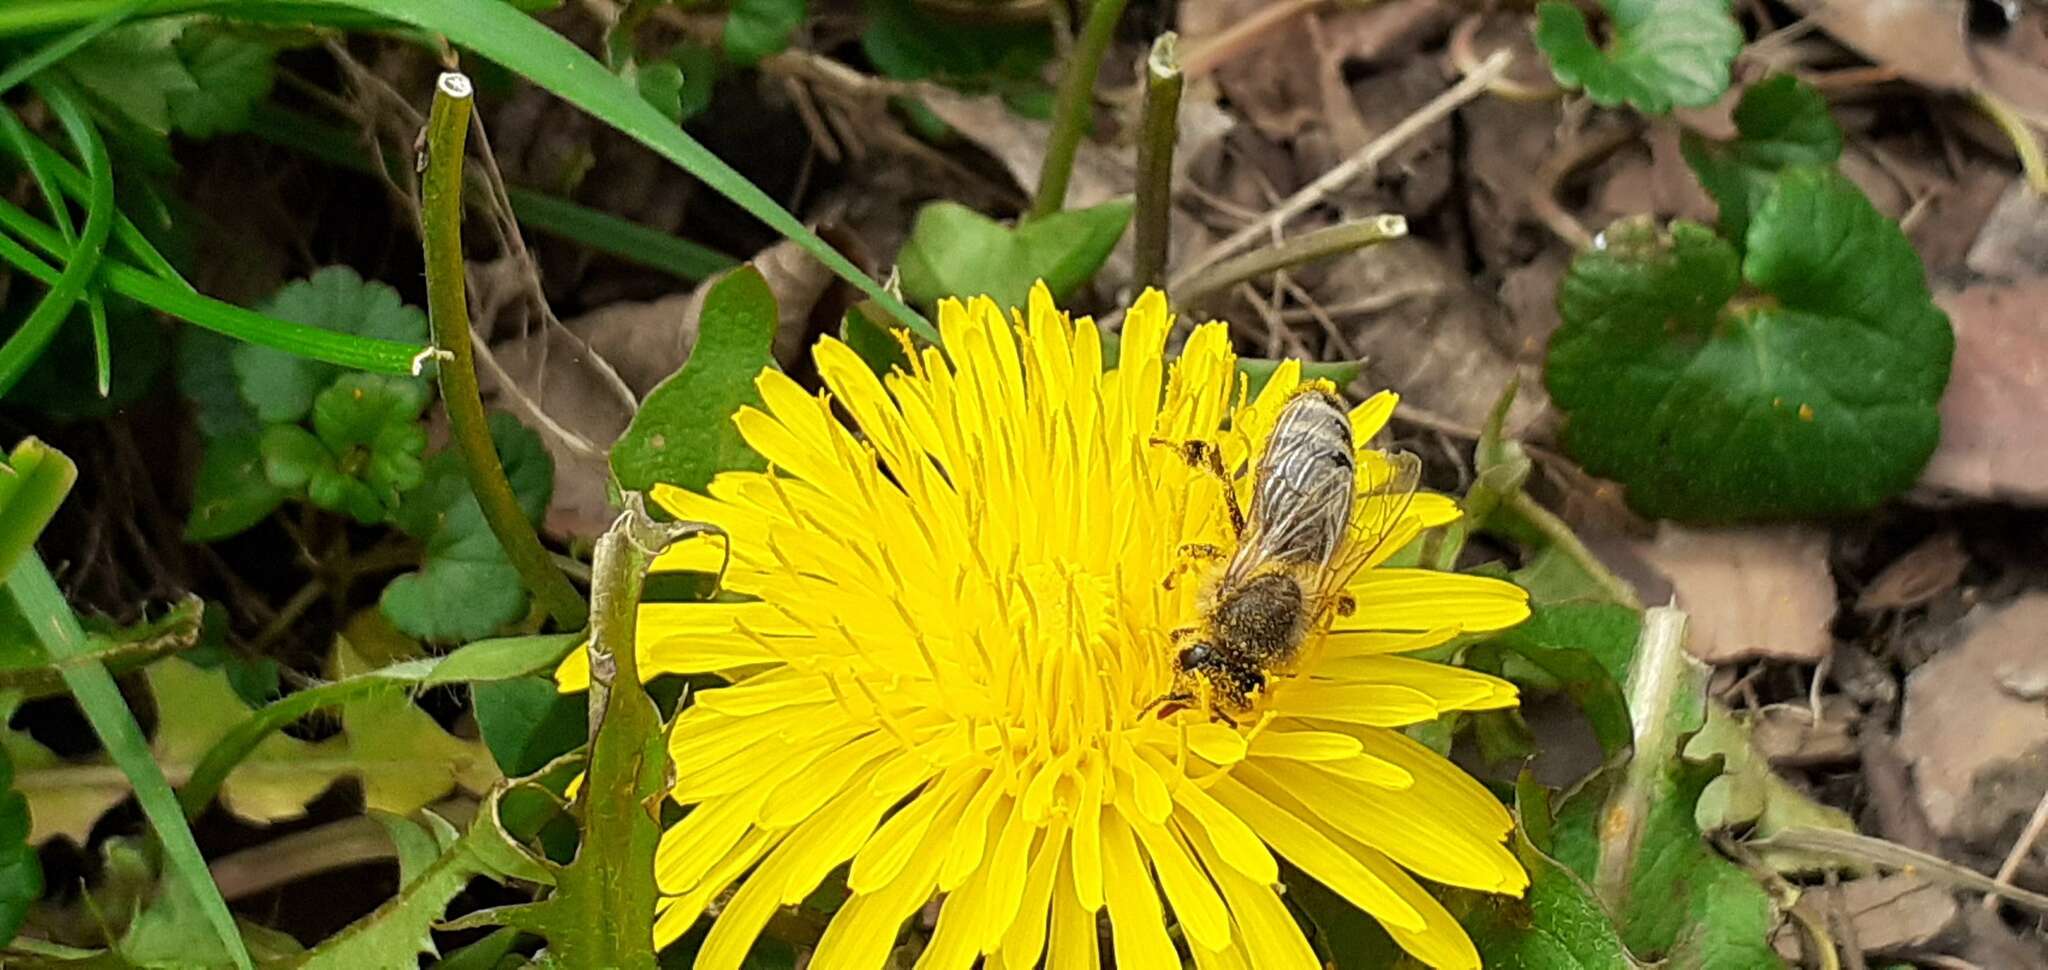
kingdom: Animalia
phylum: Arthropoda
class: Insecta
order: Hymenoptera
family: Apidae
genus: Apis
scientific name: Apis mellifera
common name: Honey bee
